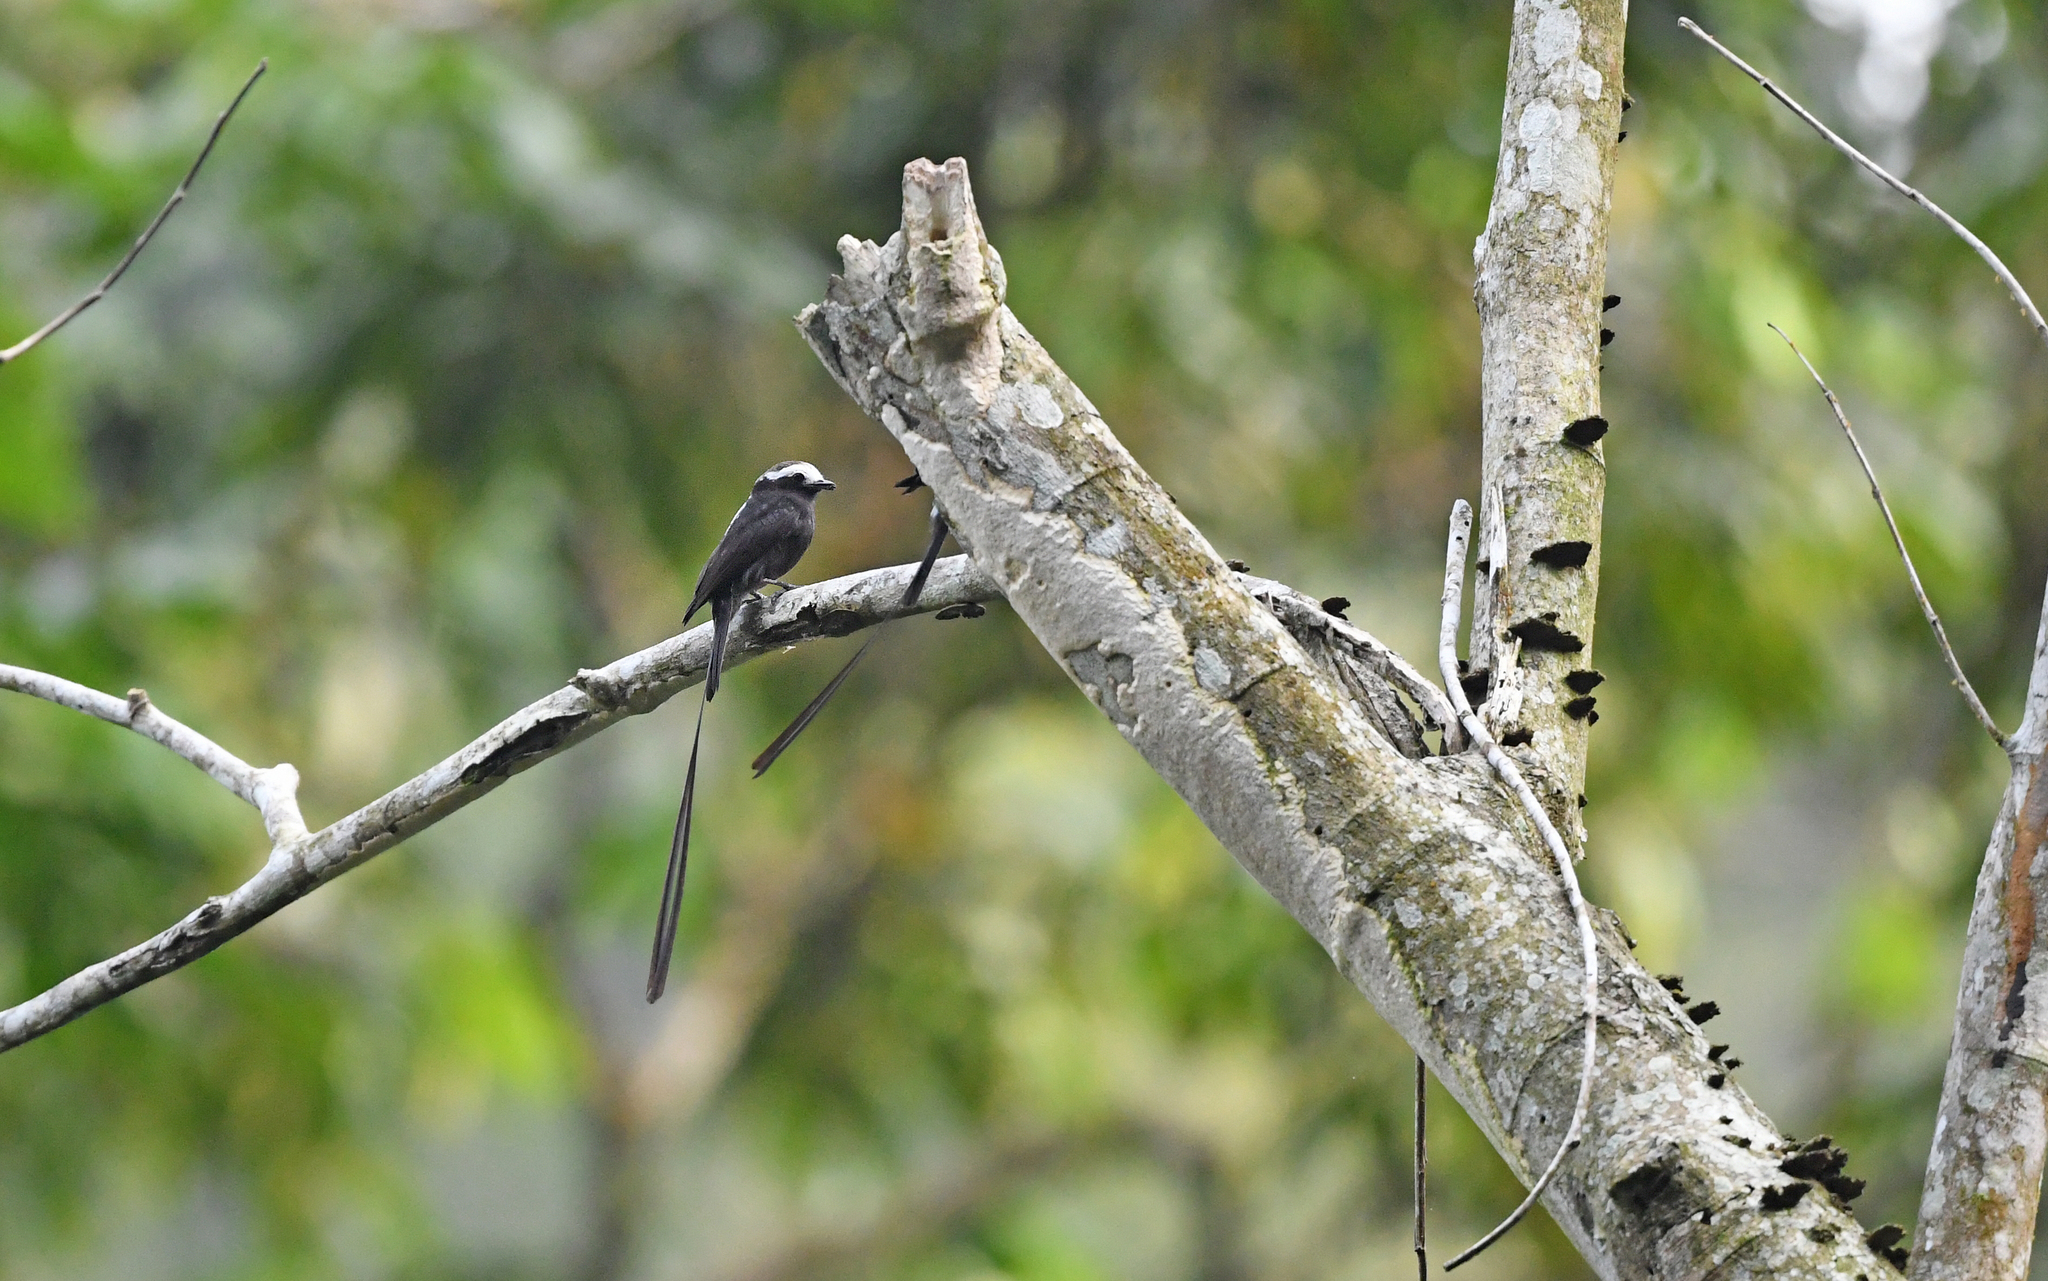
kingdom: Animalia
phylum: Chordata
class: Aves
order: Passeriformes
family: Tyrannidae
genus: Colonia
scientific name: Colonia colonus
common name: Long-tailed tyrant
